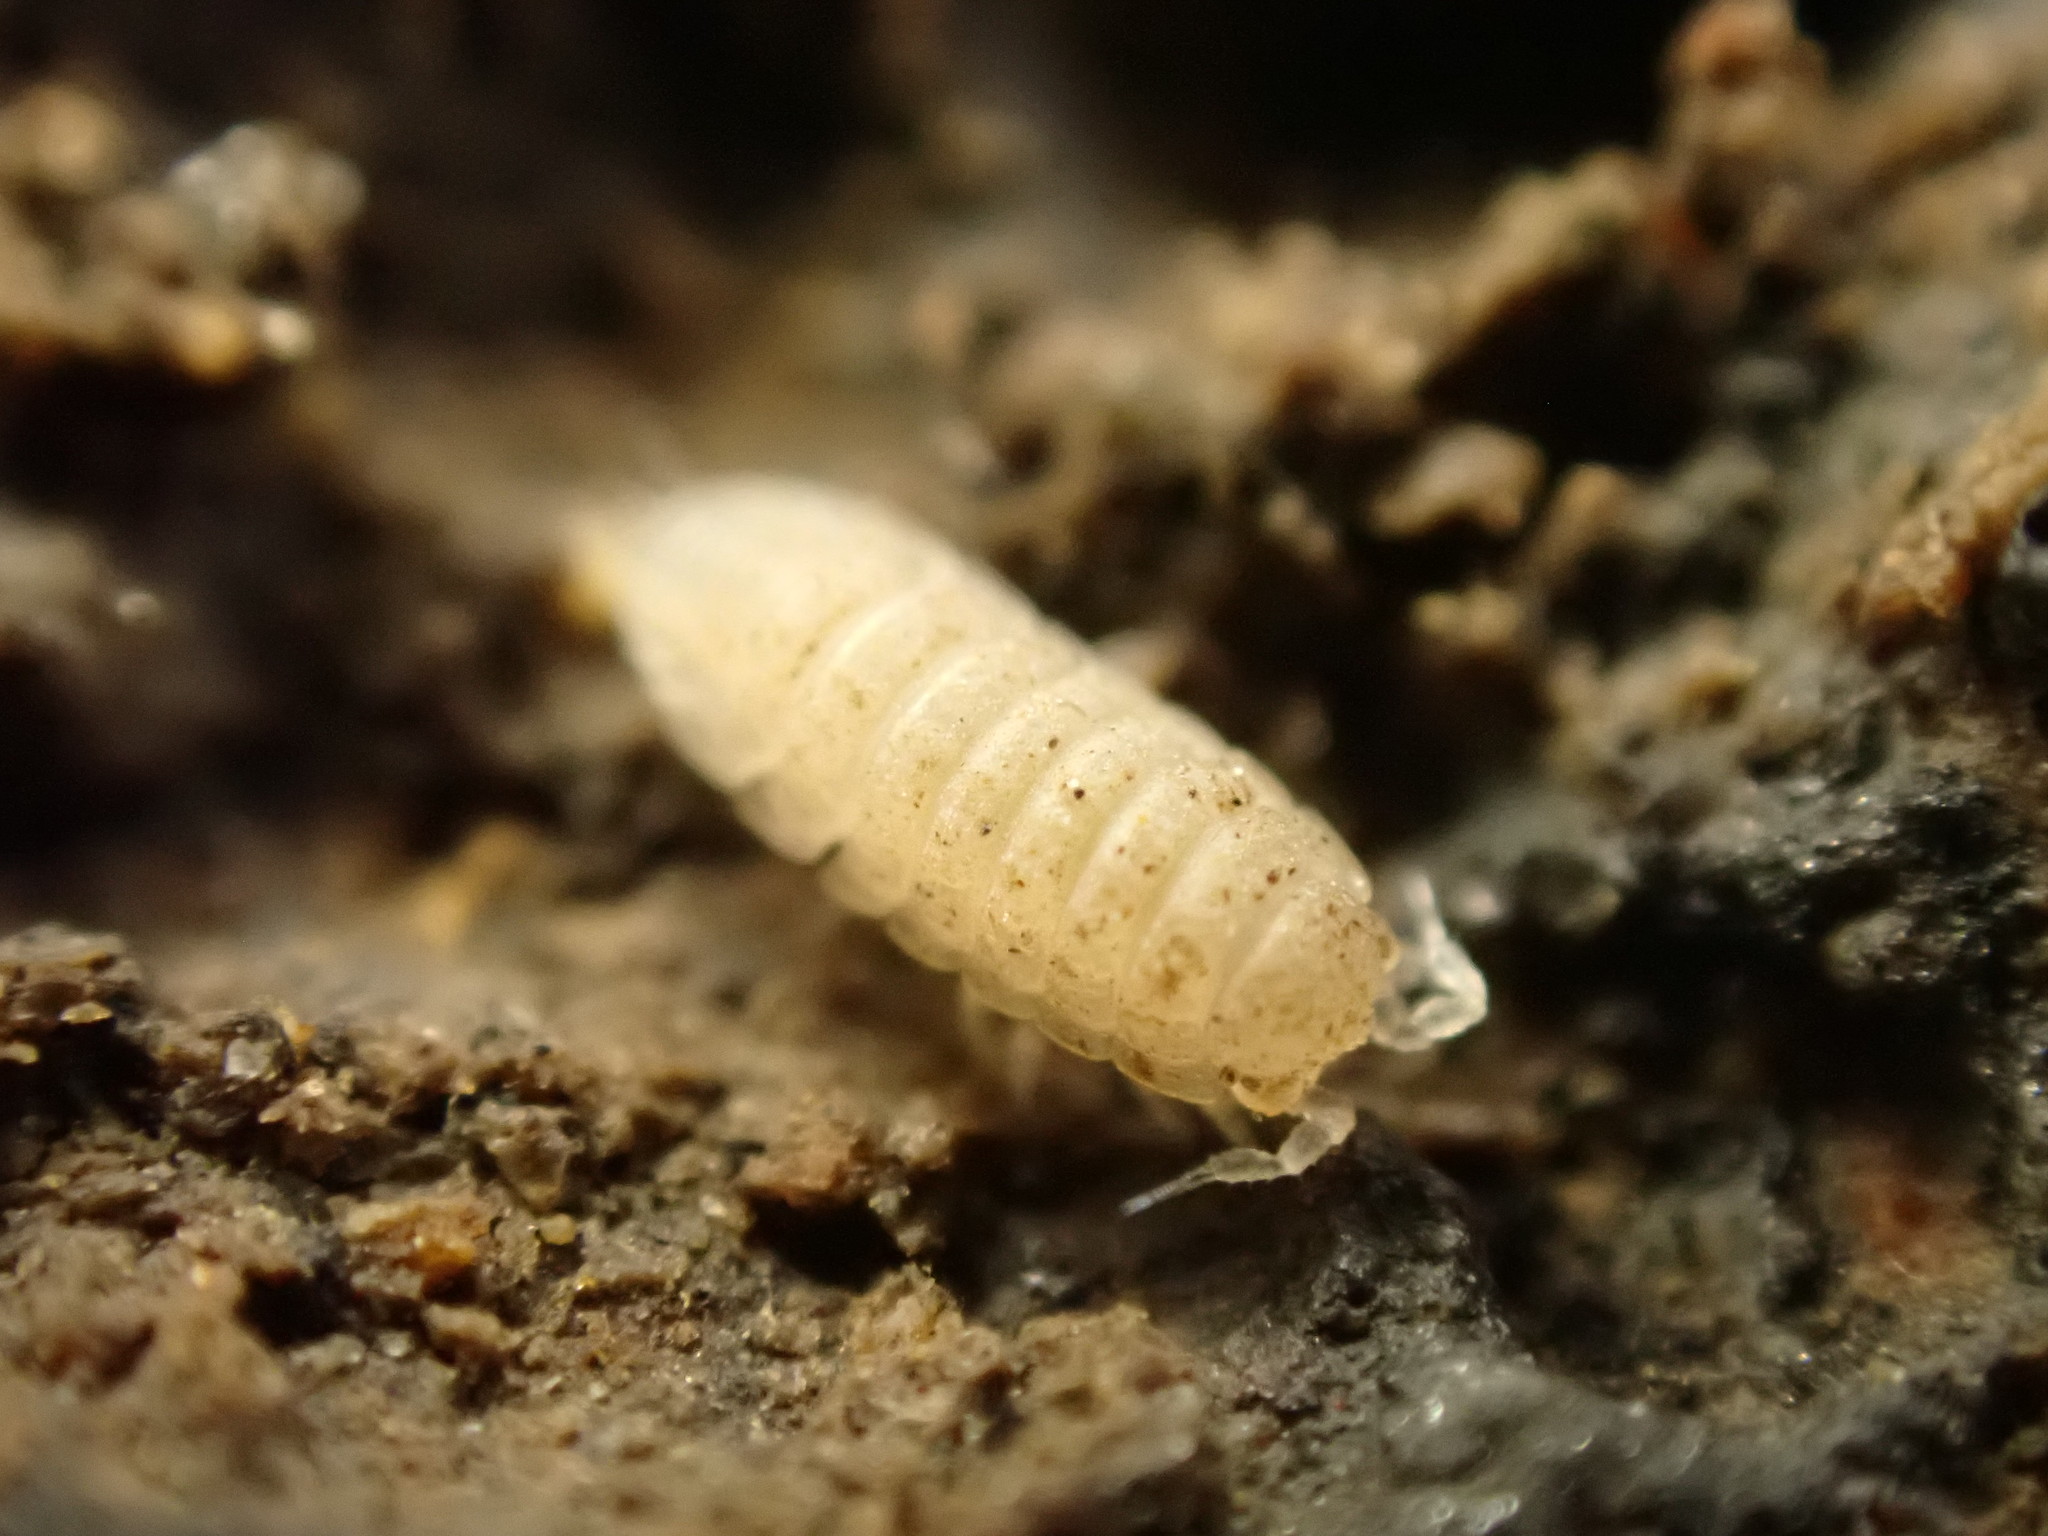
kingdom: Animalia
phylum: Arthropoda
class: Malacostraca
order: Isopoda
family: Trichoniscidae
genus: Haplophthalmus
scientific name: Haplophthalmus danicus
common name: Pillbug
